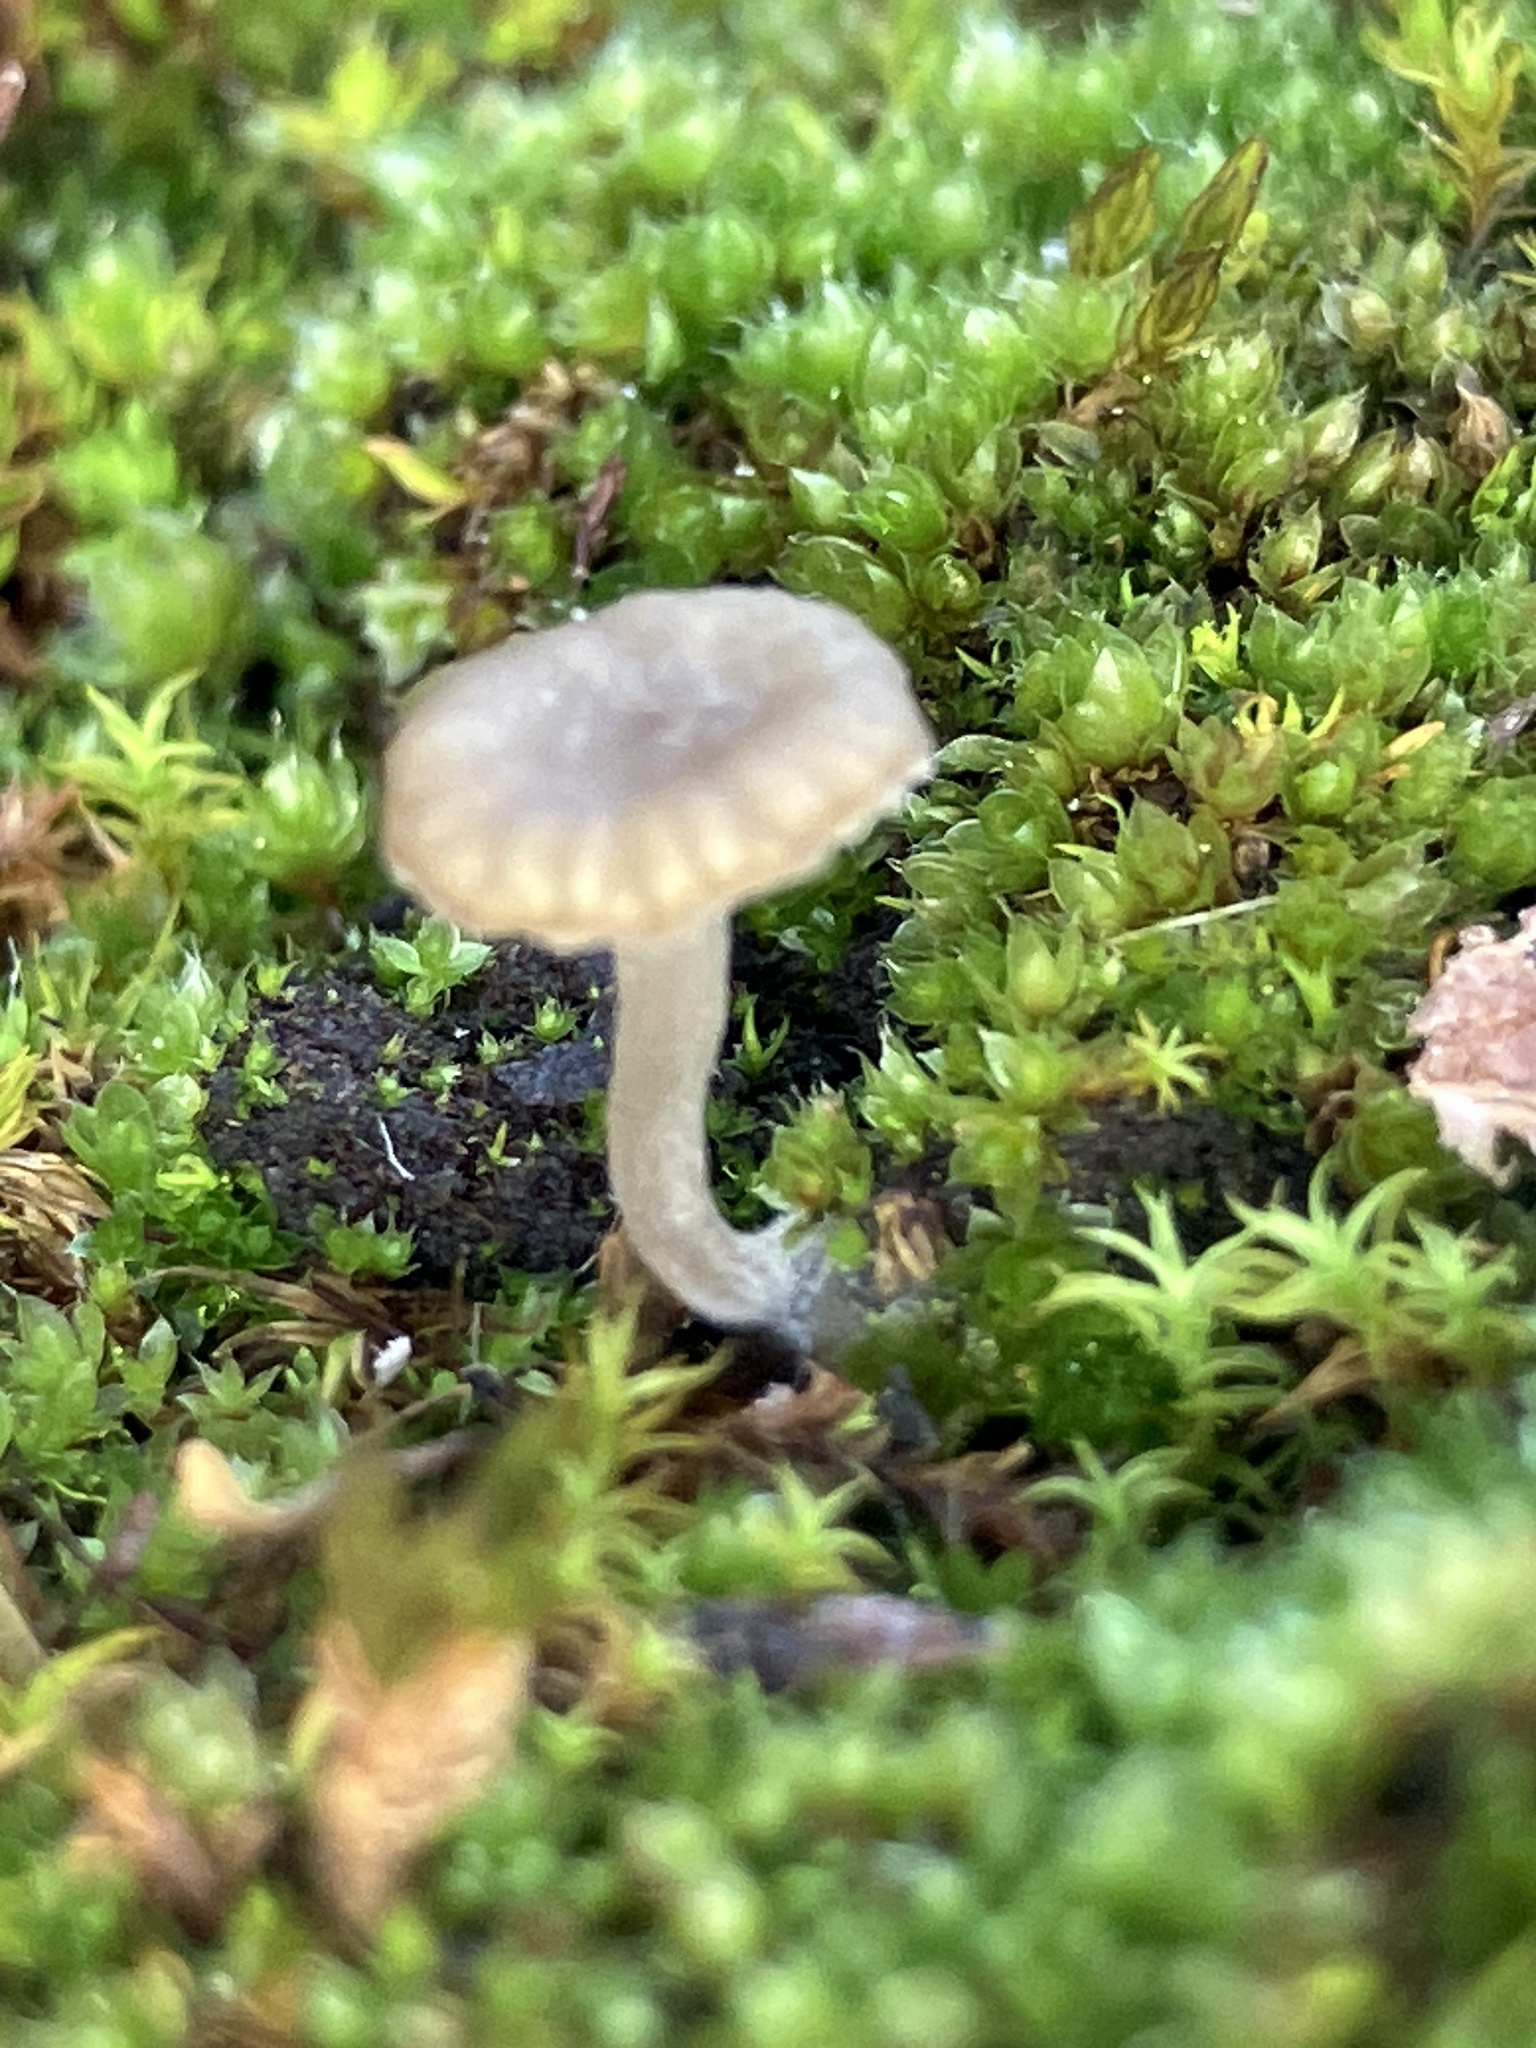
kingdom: Fungi
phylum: Basidiomycota
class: Agaricomycetes
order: Agaricales
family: Hygrophoraceae
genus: Arrhenia
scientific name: Arrhenia rickenii
